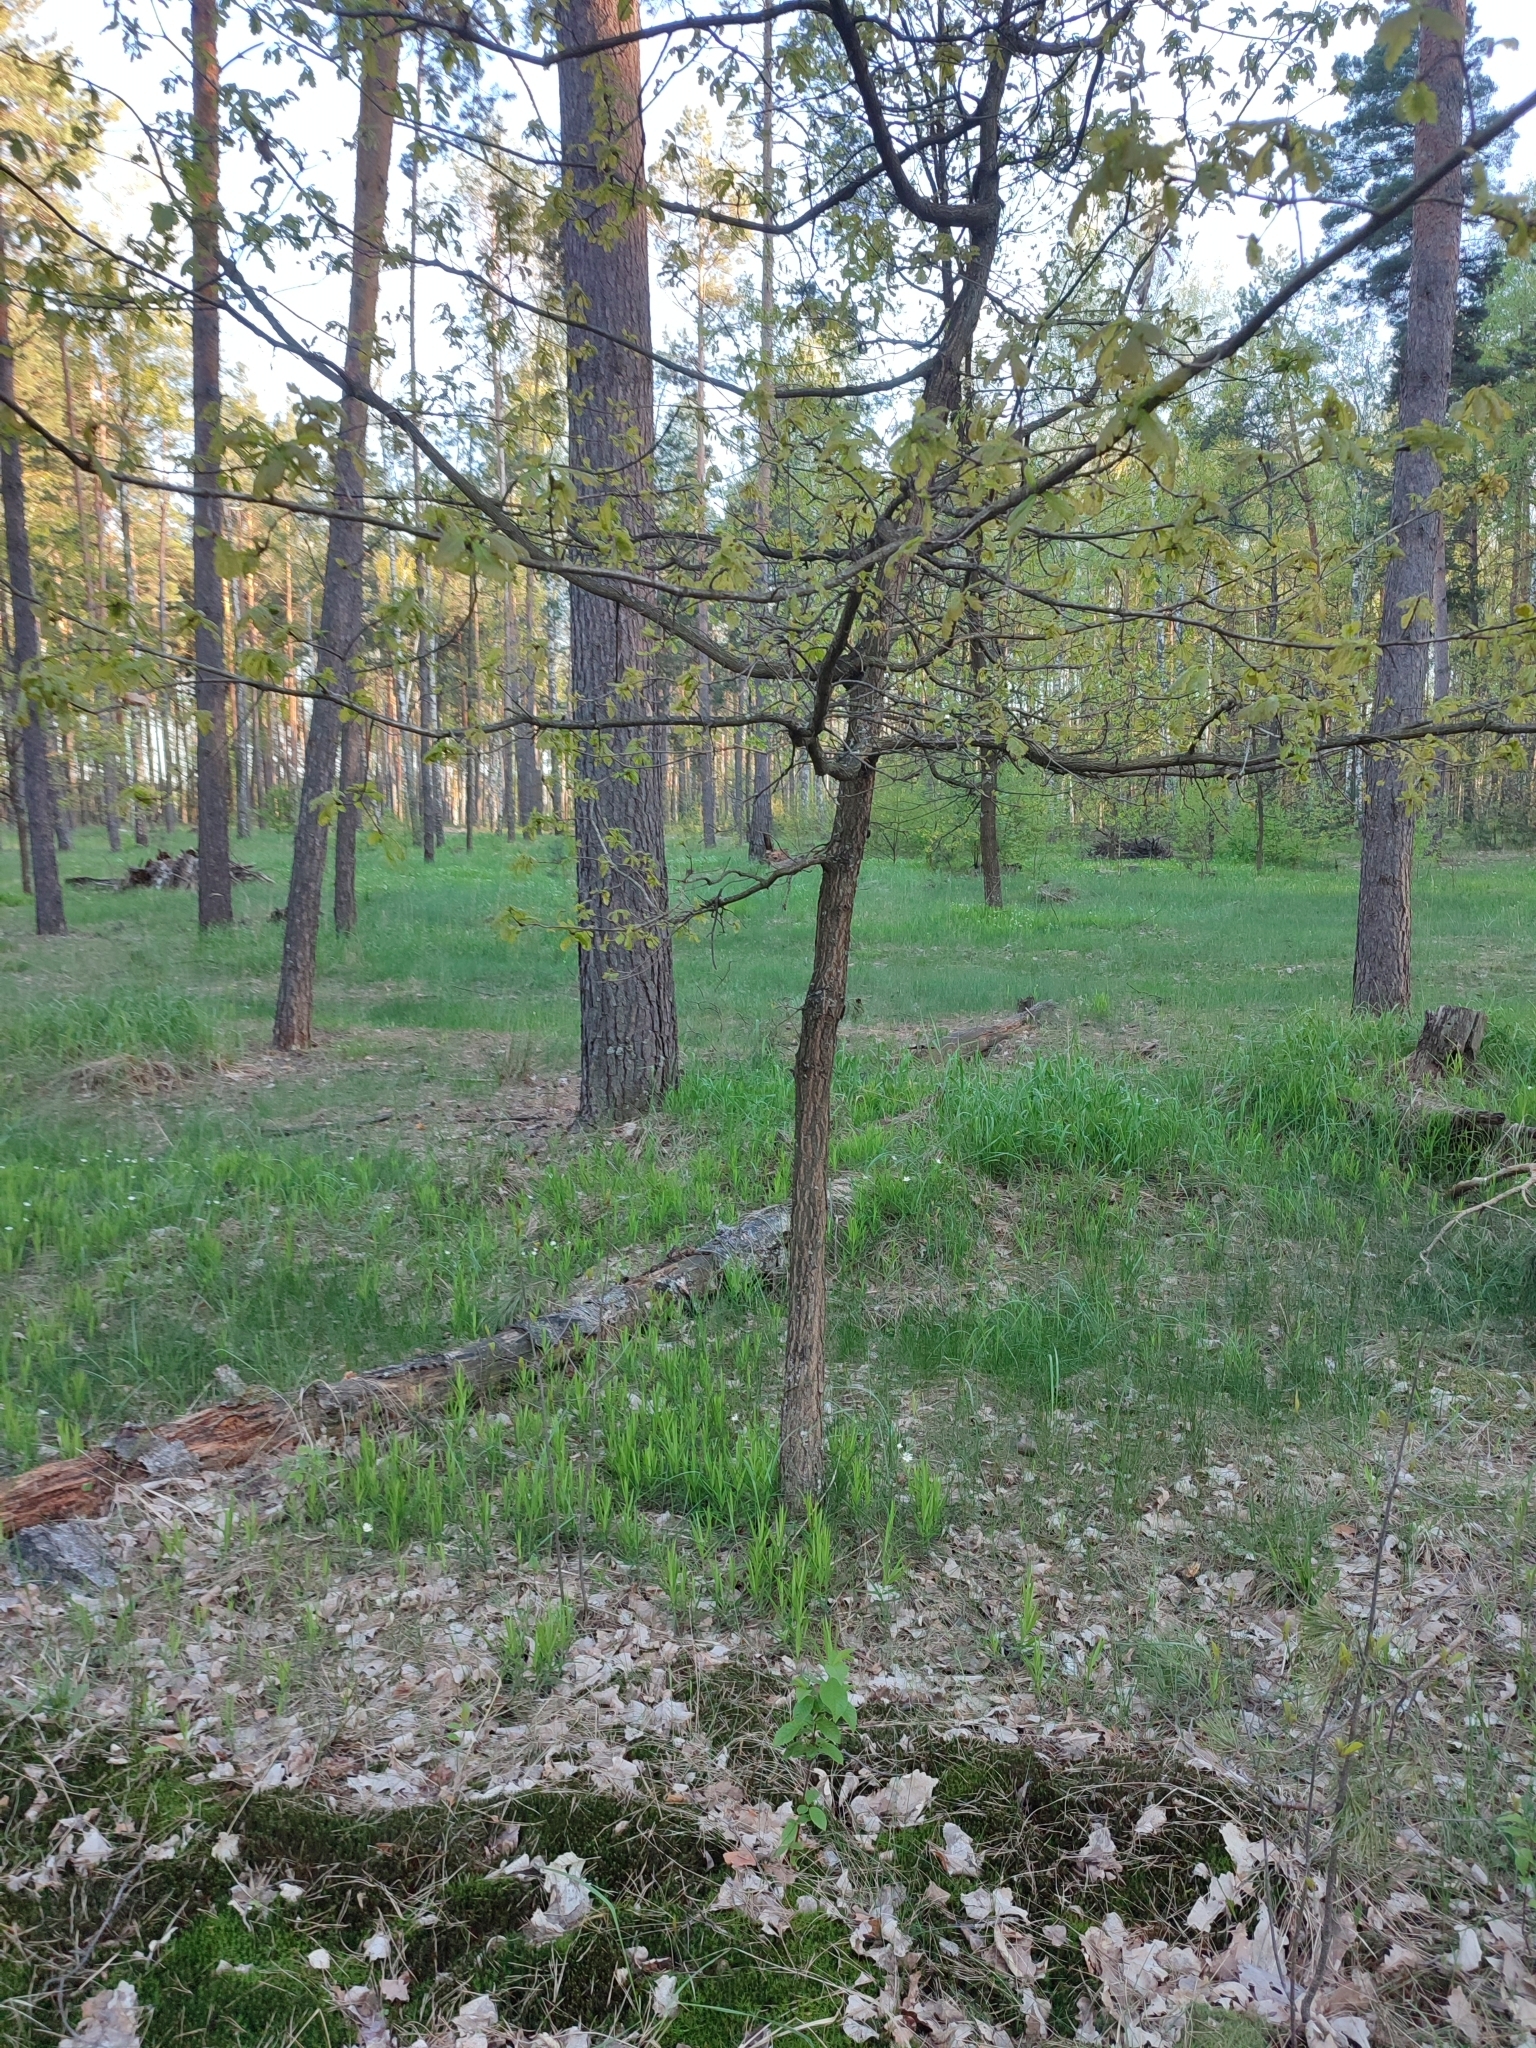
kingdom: Plantae
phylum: Tracheophyta
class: Magnoliopsida
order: Fagales
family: Fagaceae
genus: Quercus
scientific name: Quercus robur
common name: Pedunculate oak
